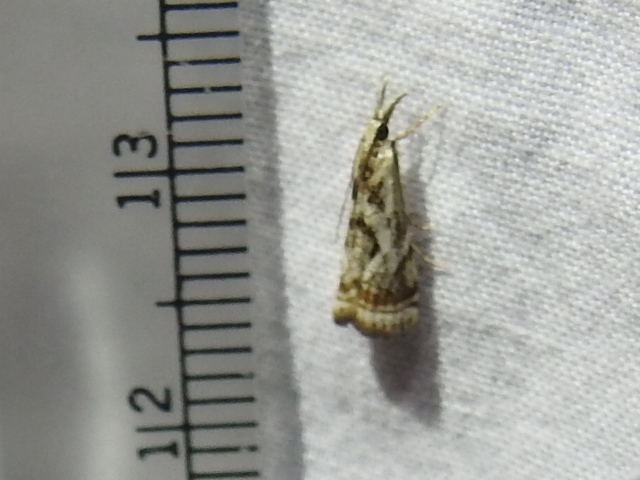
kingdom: Animalia
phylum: Arthropoda
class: Insecta
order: Lepidoptera
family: Crambidae
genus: Microcrambus
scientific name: Microcrambus elegans
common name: Elegant grass-veneer
